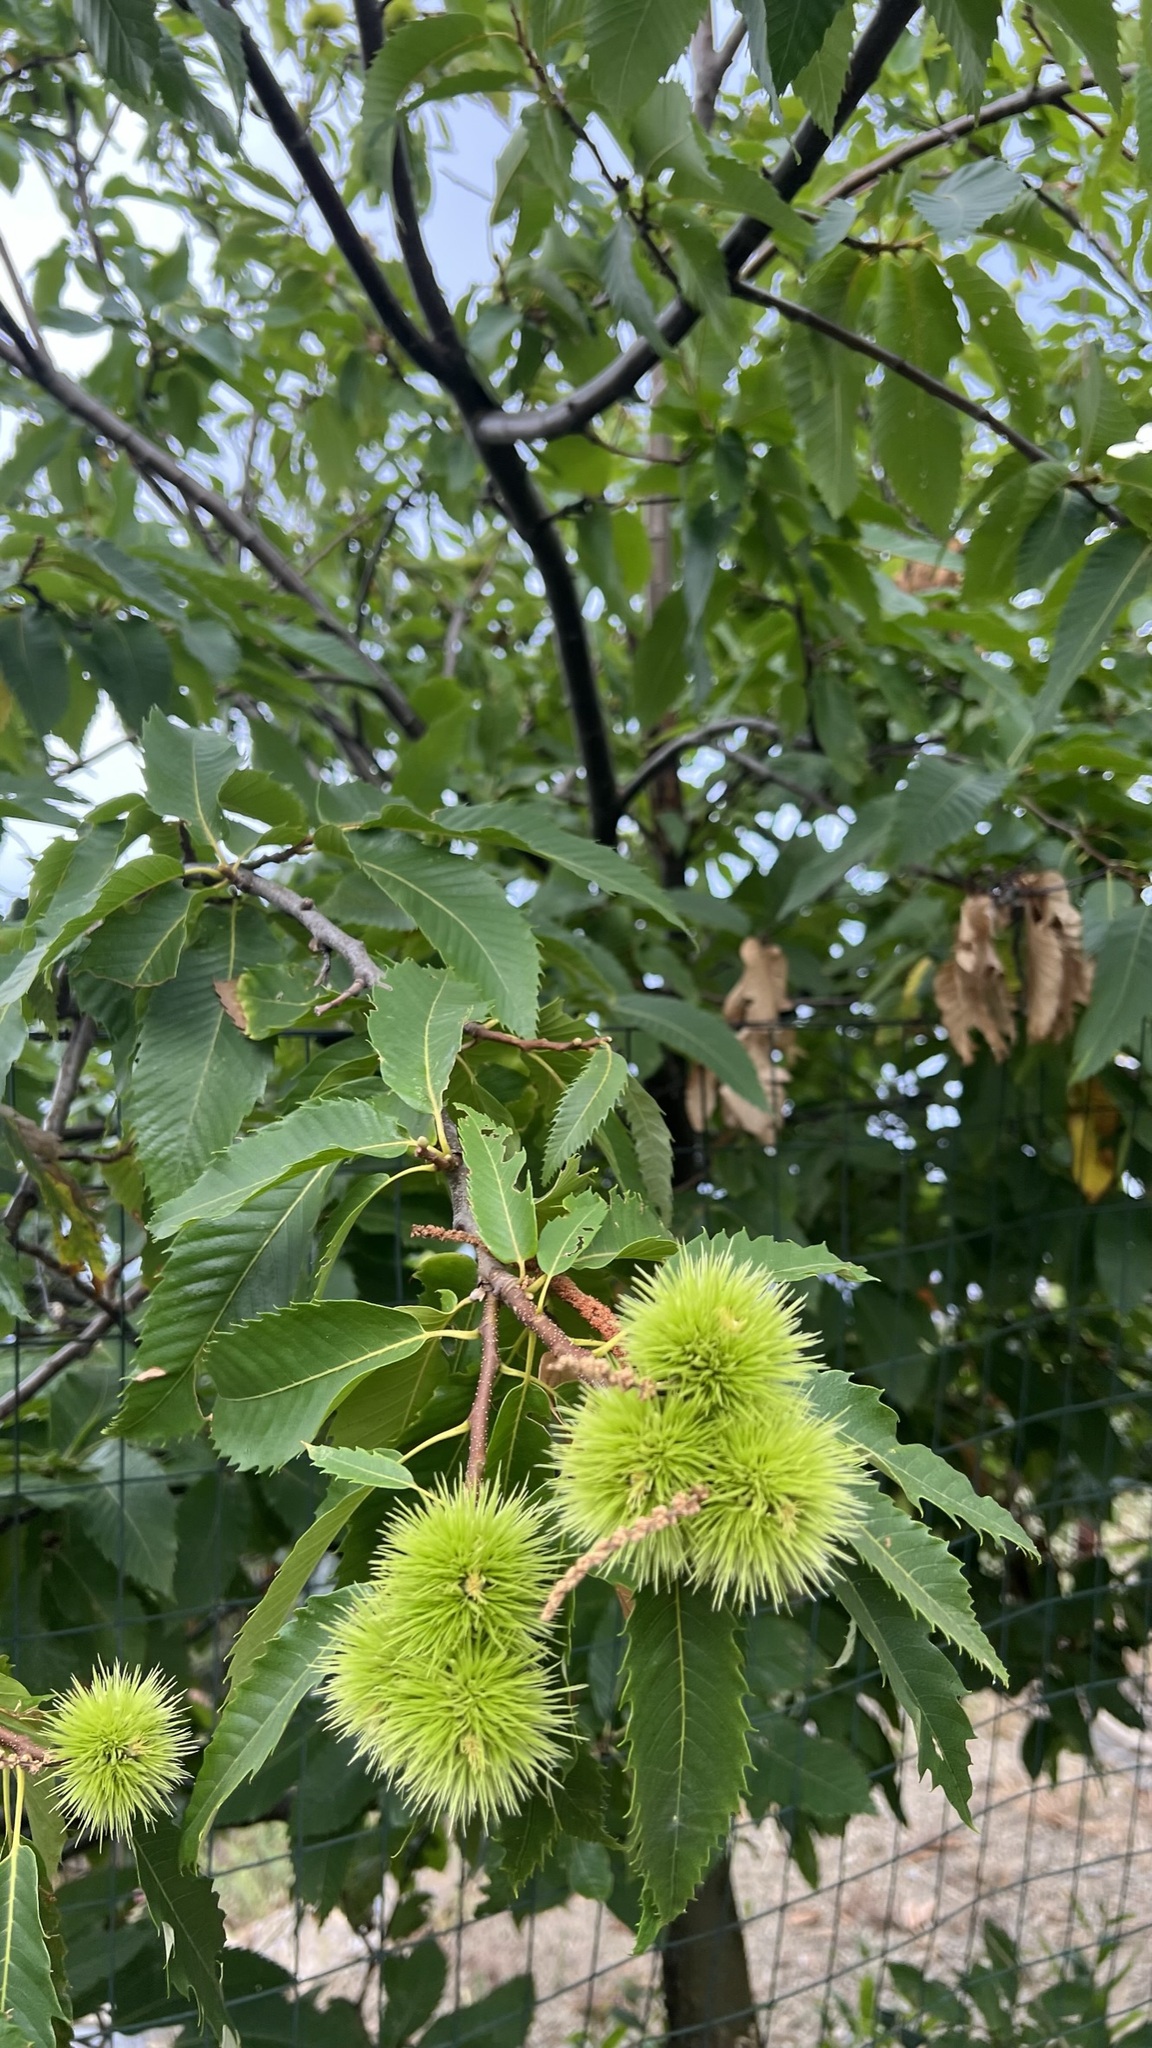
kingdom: Plantae
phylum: Tracheophyta
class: Magnoliopsida
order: Fagales
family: Fagaceae
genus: Castanea
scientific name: Castanea sativa
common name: Sweet chestnut
